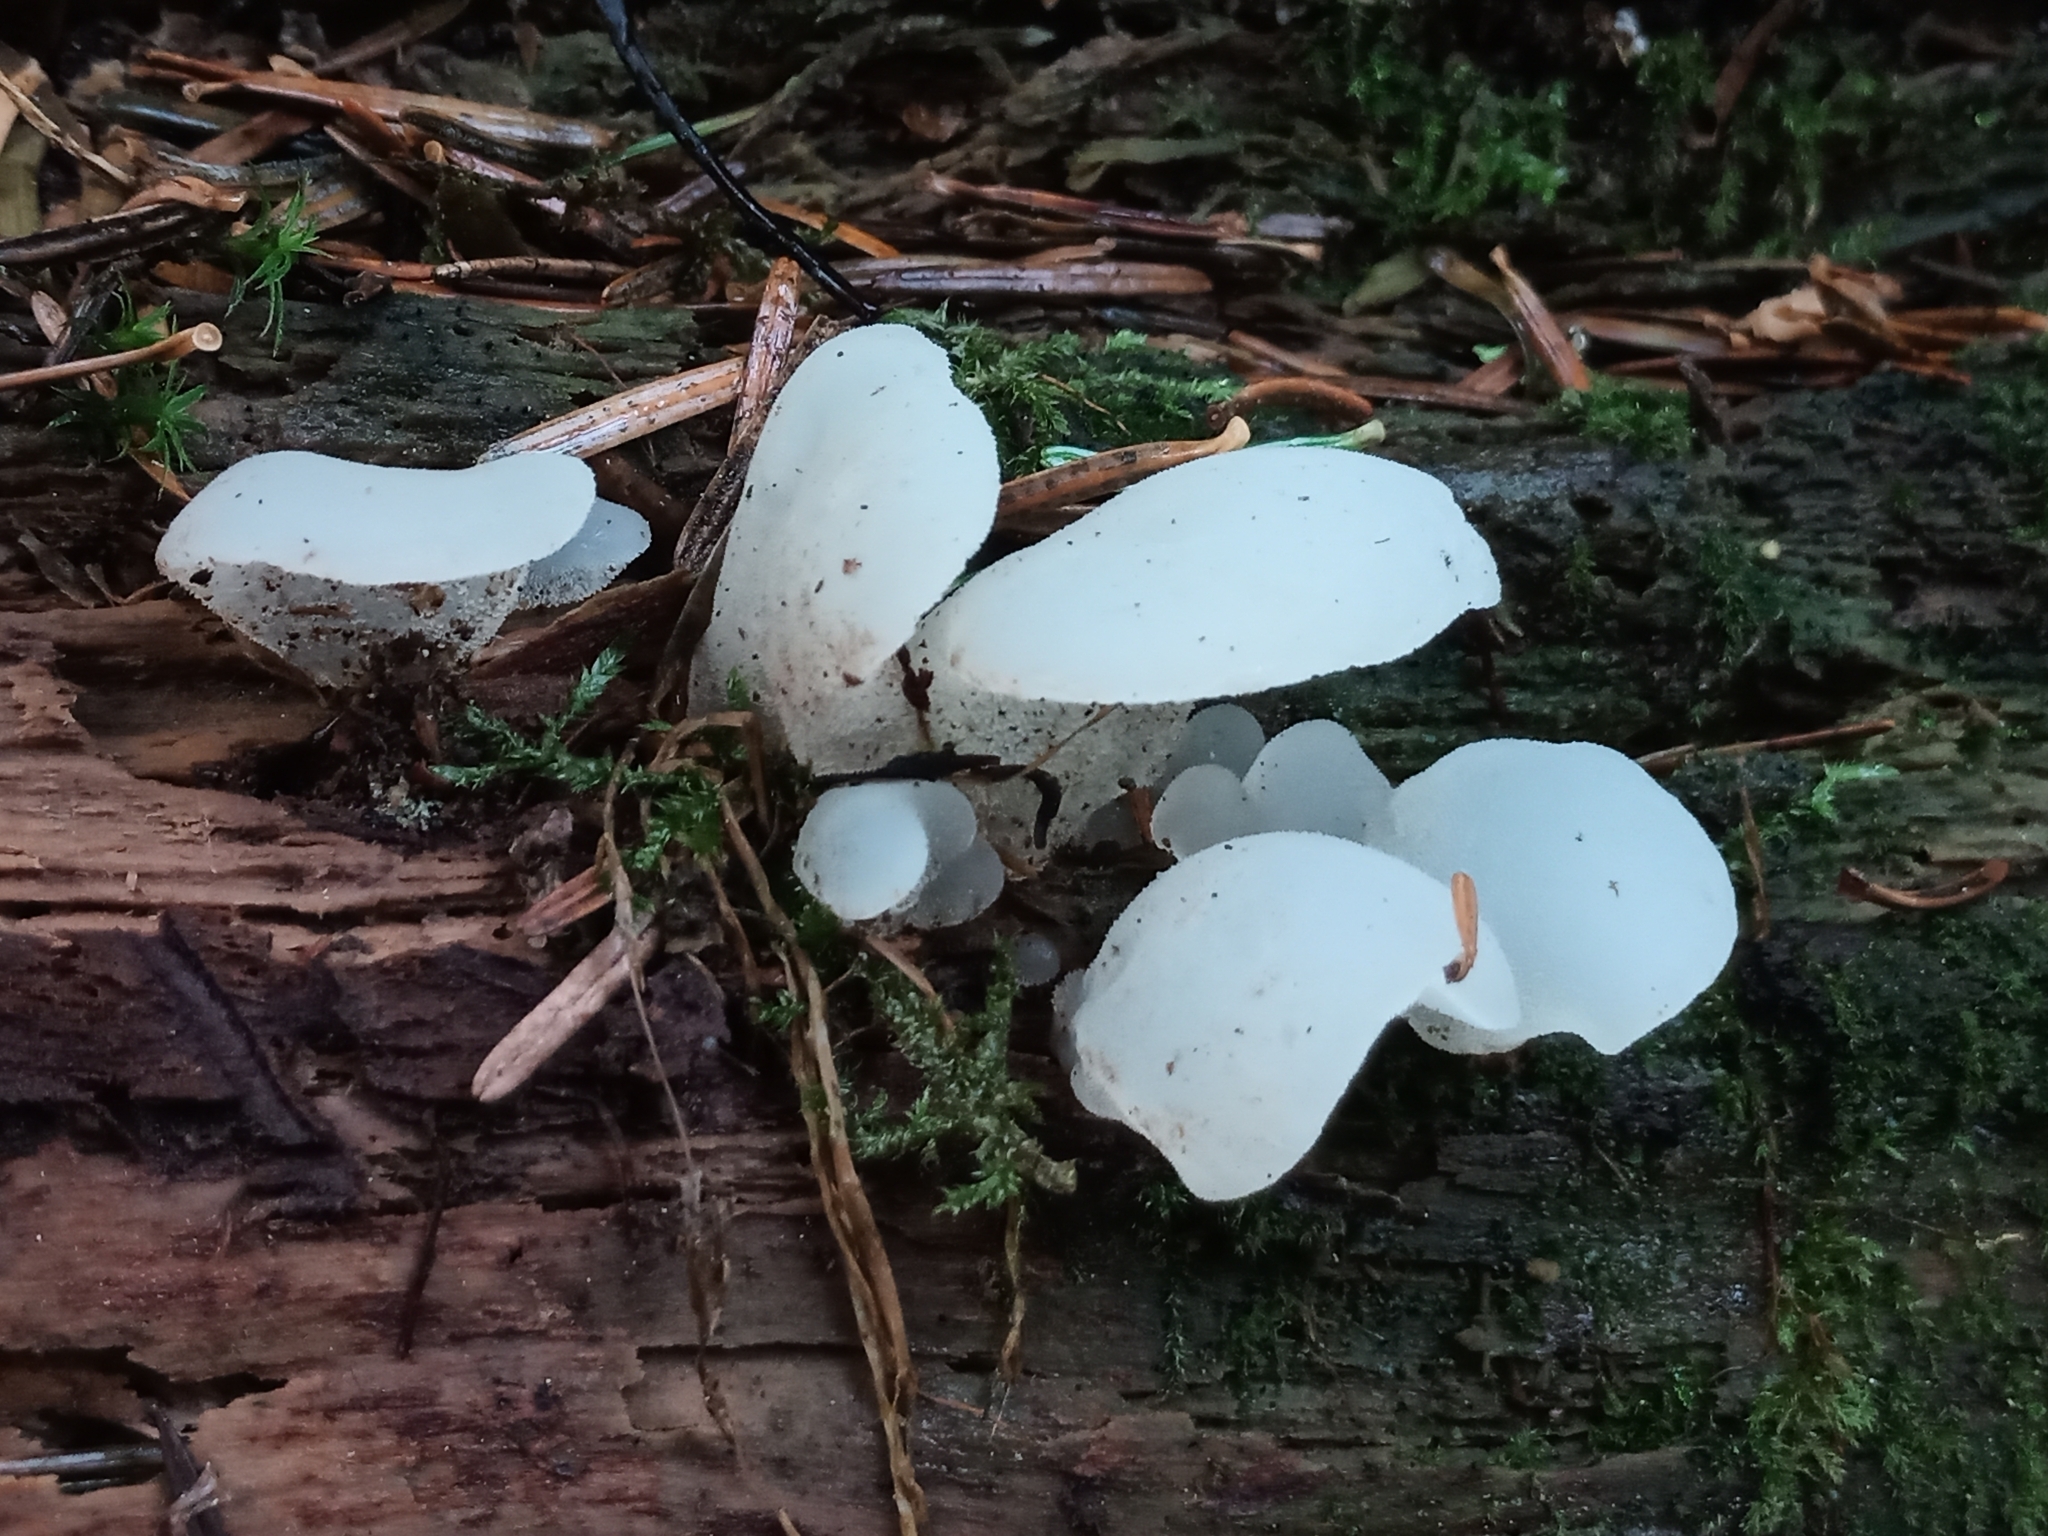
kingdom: Fungi
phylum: Basidiomycota
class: Agaricomycetes
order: Auriculariales
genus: Pseudohydnum
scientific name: Pseudohydnum gelatinosum
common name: Jelly tongue
